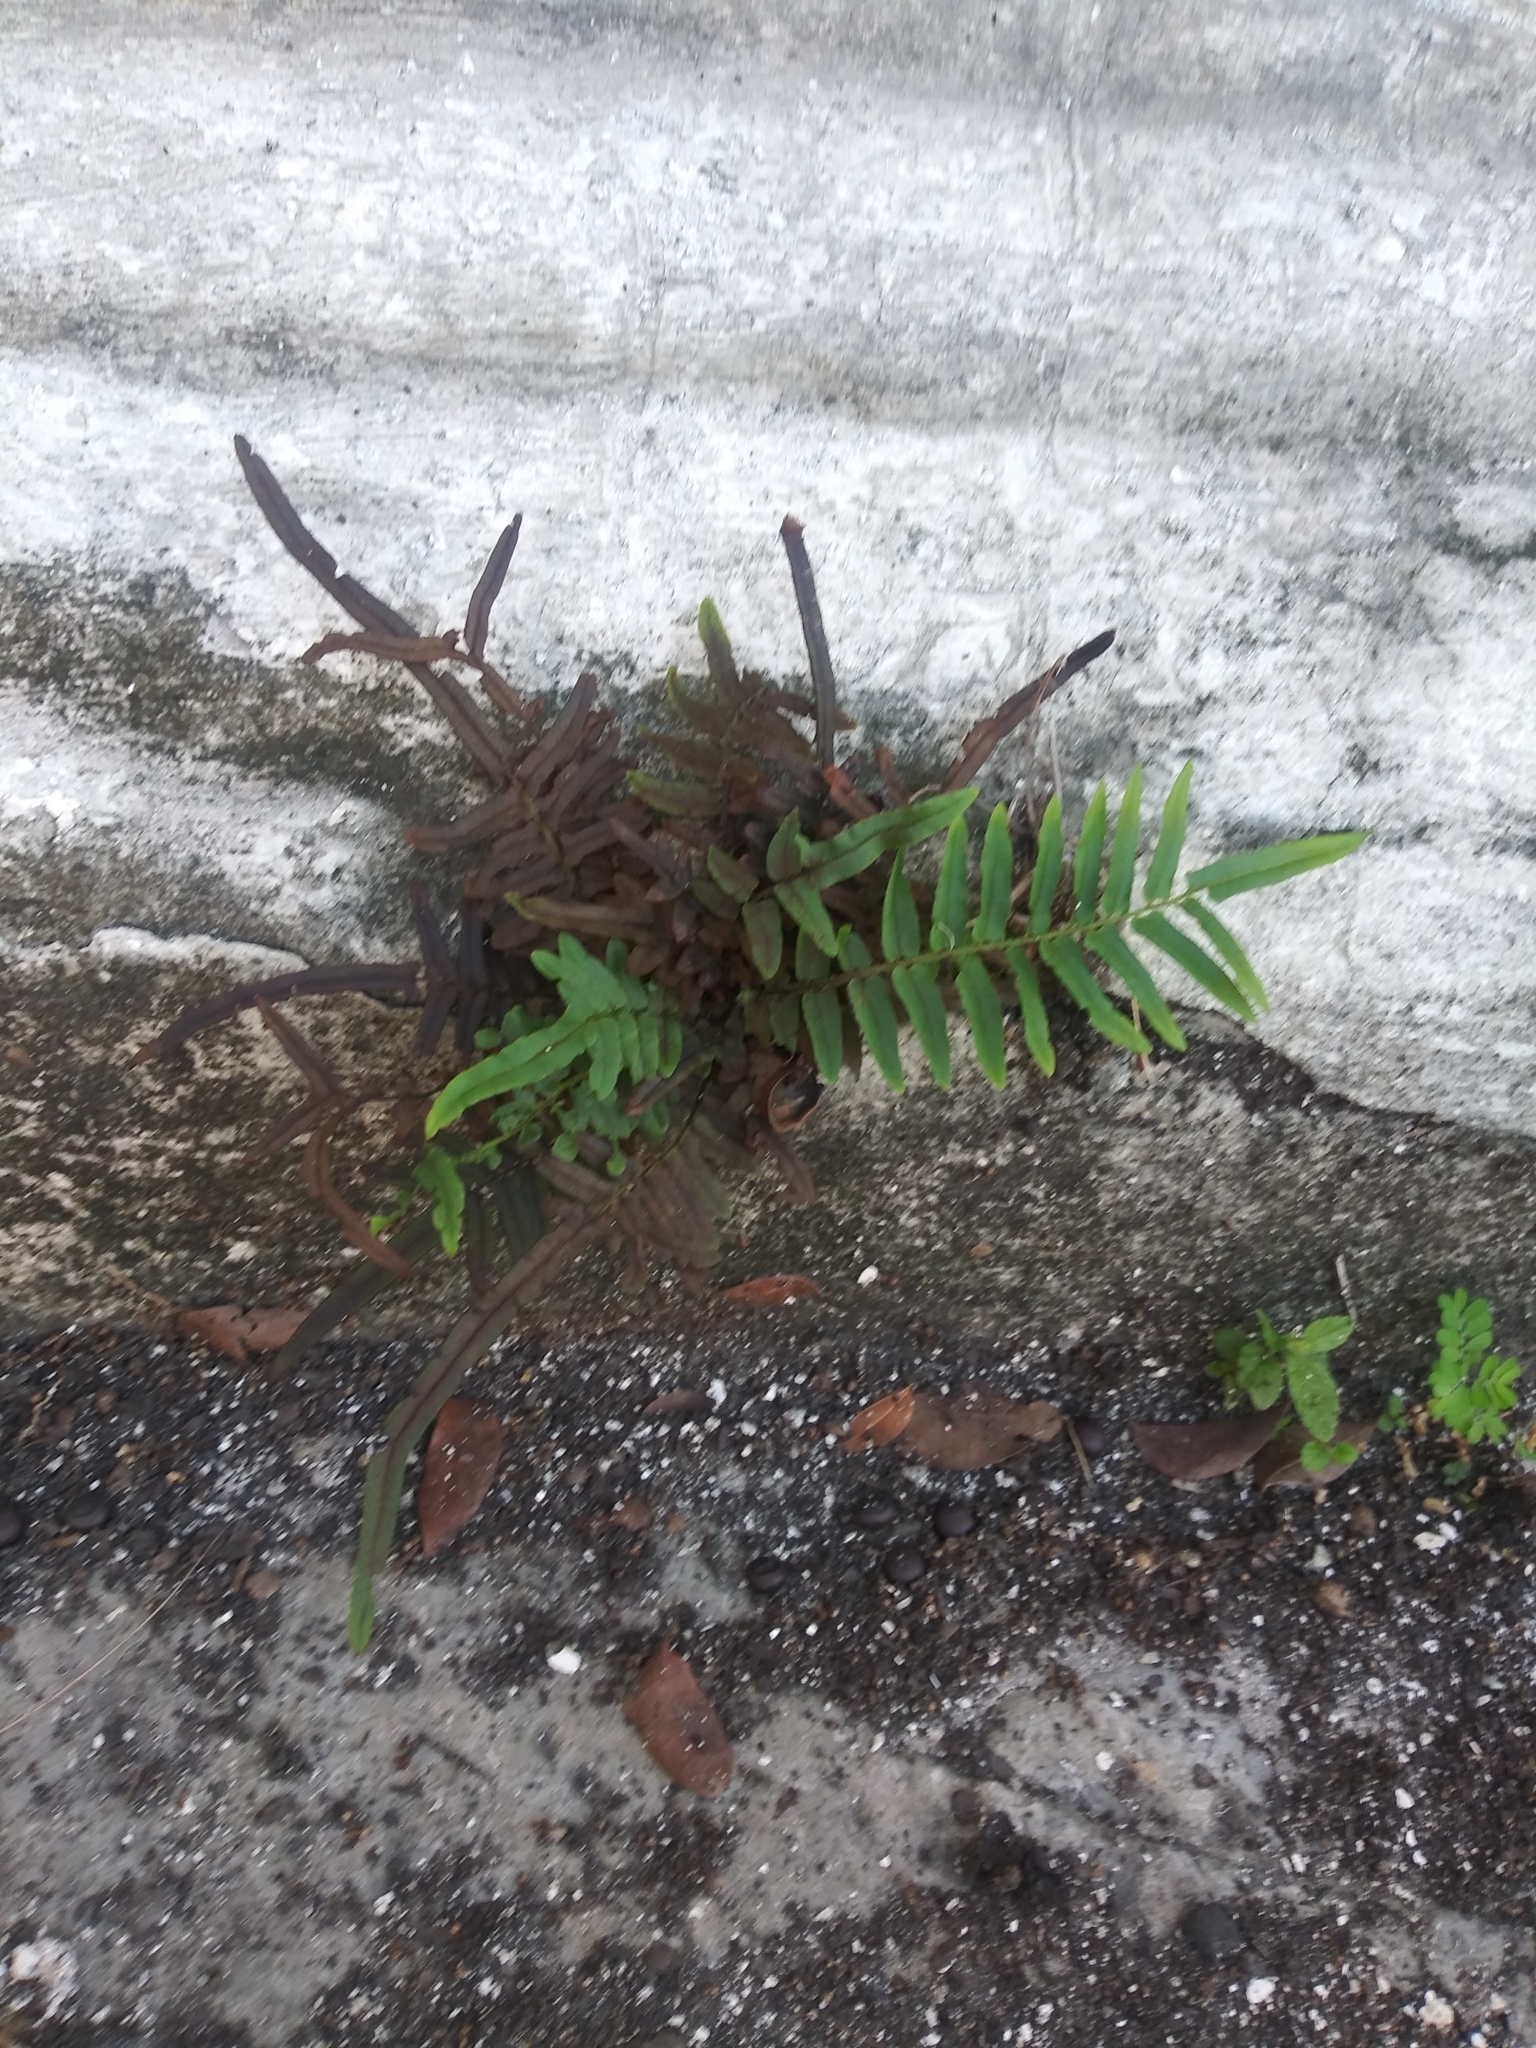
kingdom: Plantae
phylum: Tracheophyta
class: Polypodiopsida
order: Polypodiales
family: Pteridaceae
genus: Pteris
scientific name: Pteris vittata
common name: Ladder brake
